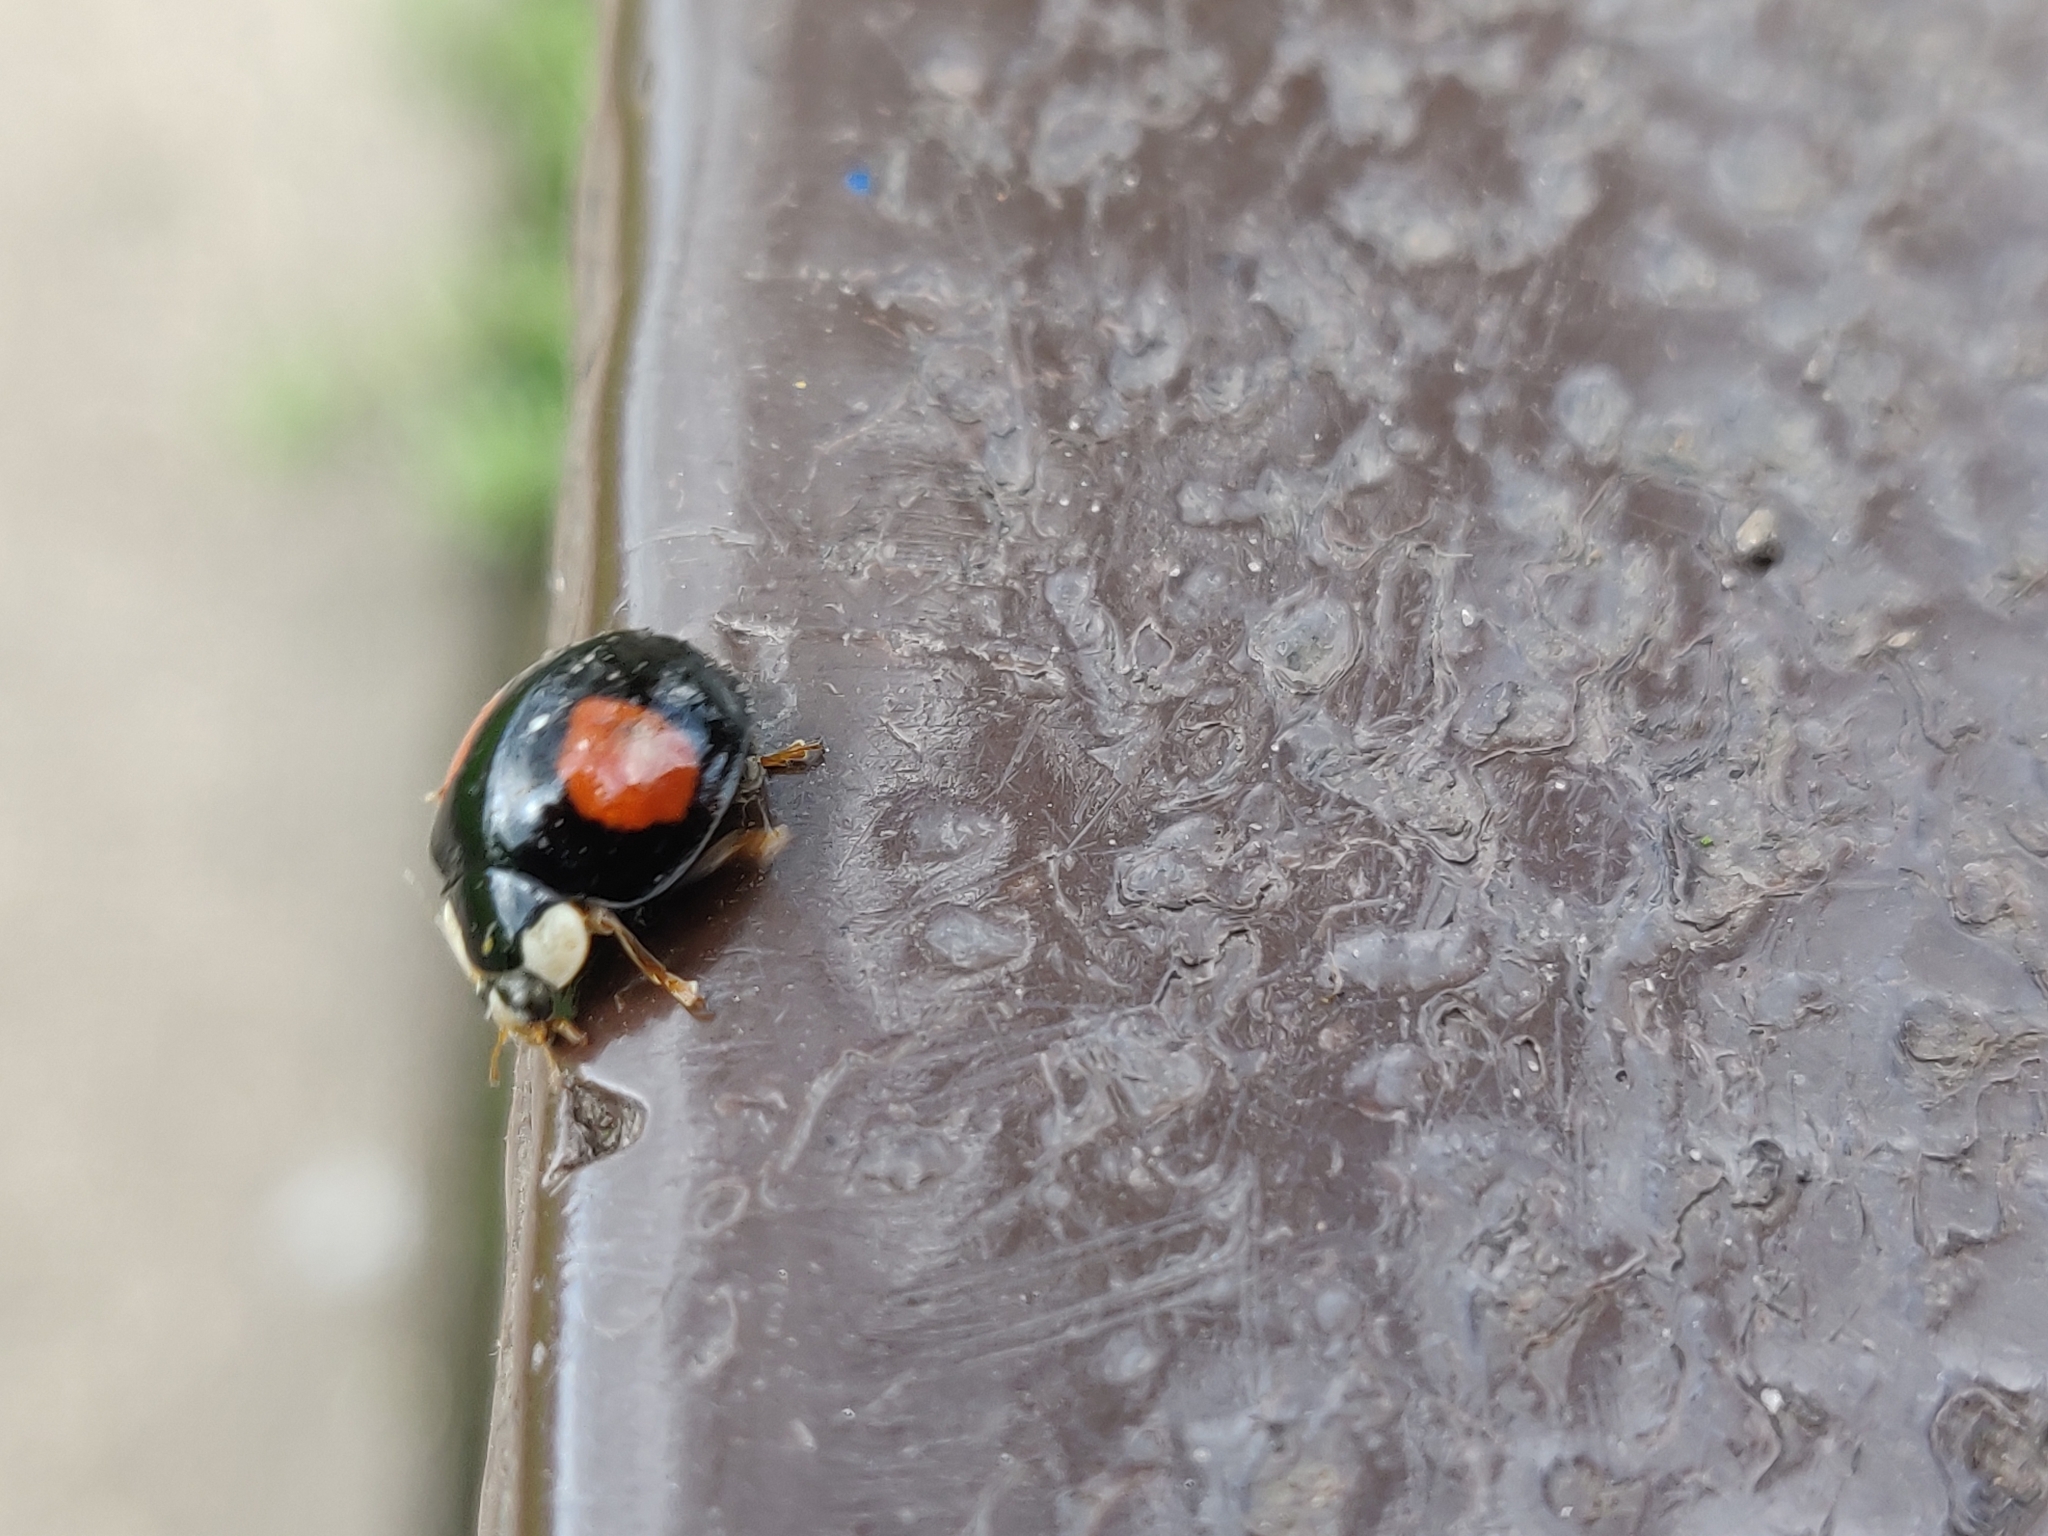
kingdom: Animalia
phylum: Arthropoda
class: Insecta
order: Coleoptera
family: Coccinellidae
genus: Harmonia
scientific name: Harmonia axyridis
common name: Harlequin ladybird
